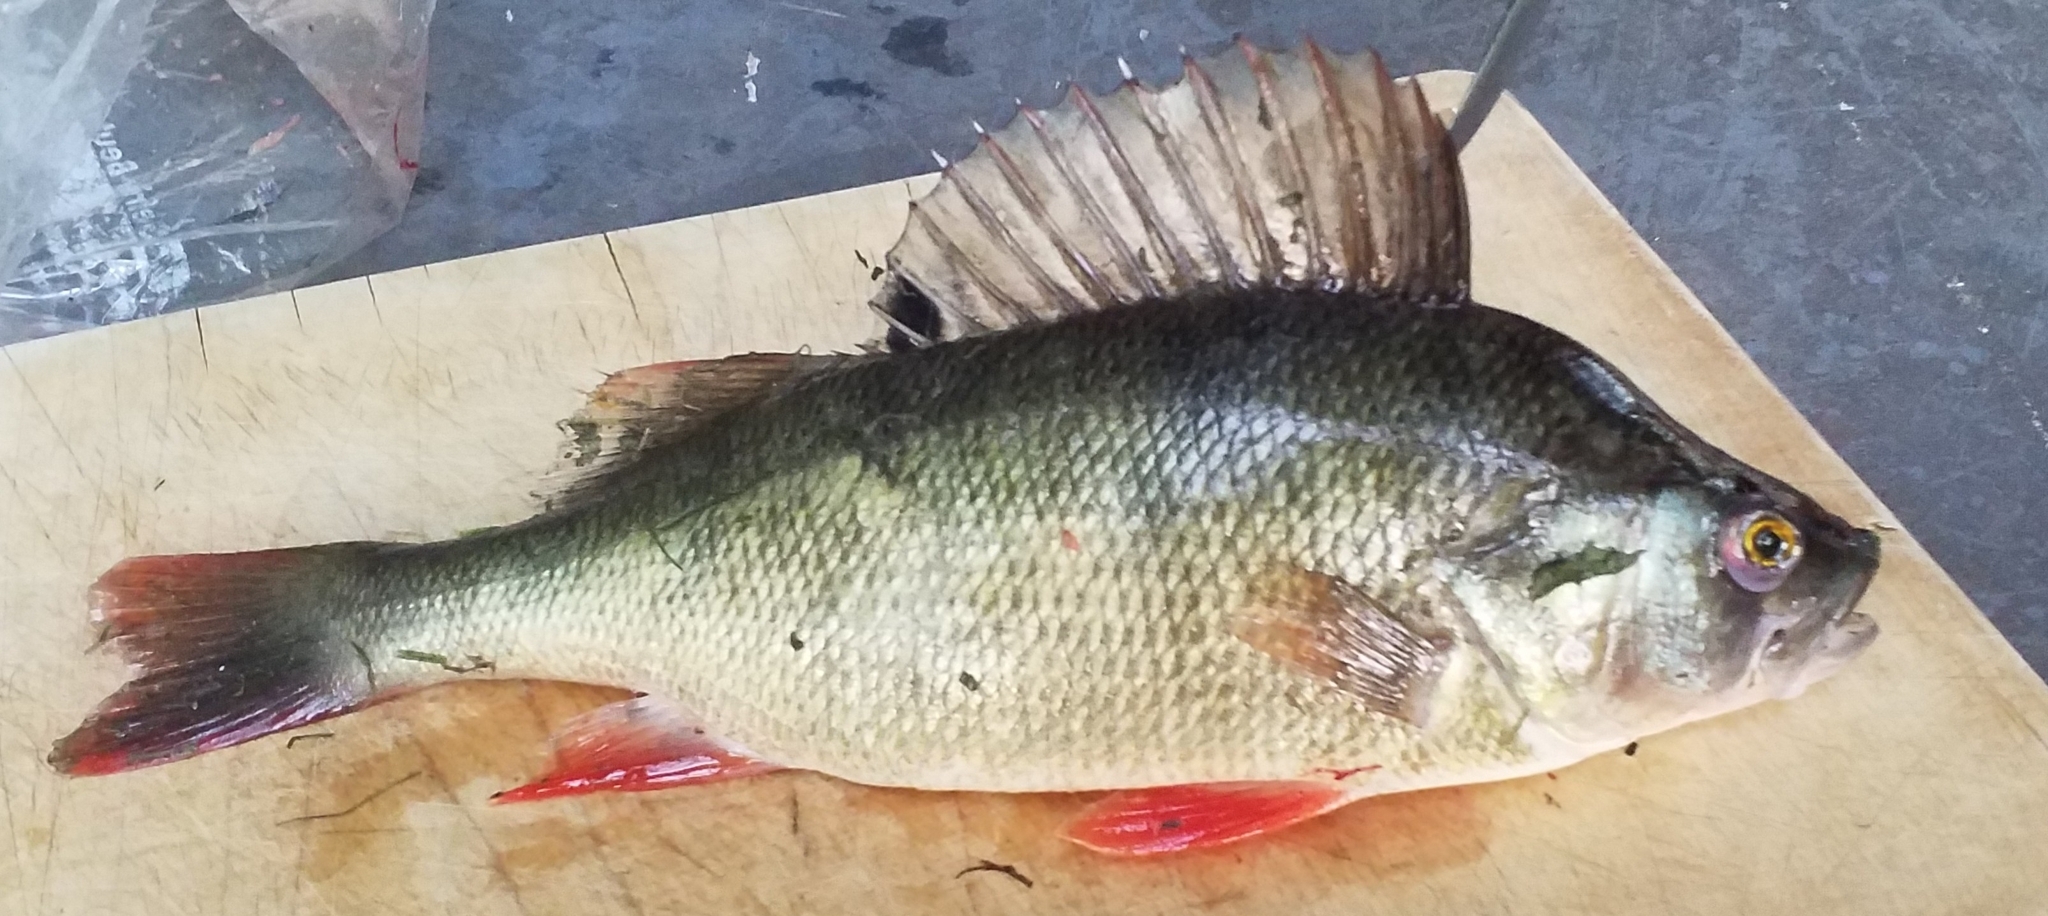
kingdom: Animalia
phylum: Chordata
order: Perciformes
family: Percidae
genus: Perca
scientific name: Perca fluviatilis
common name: Perch
